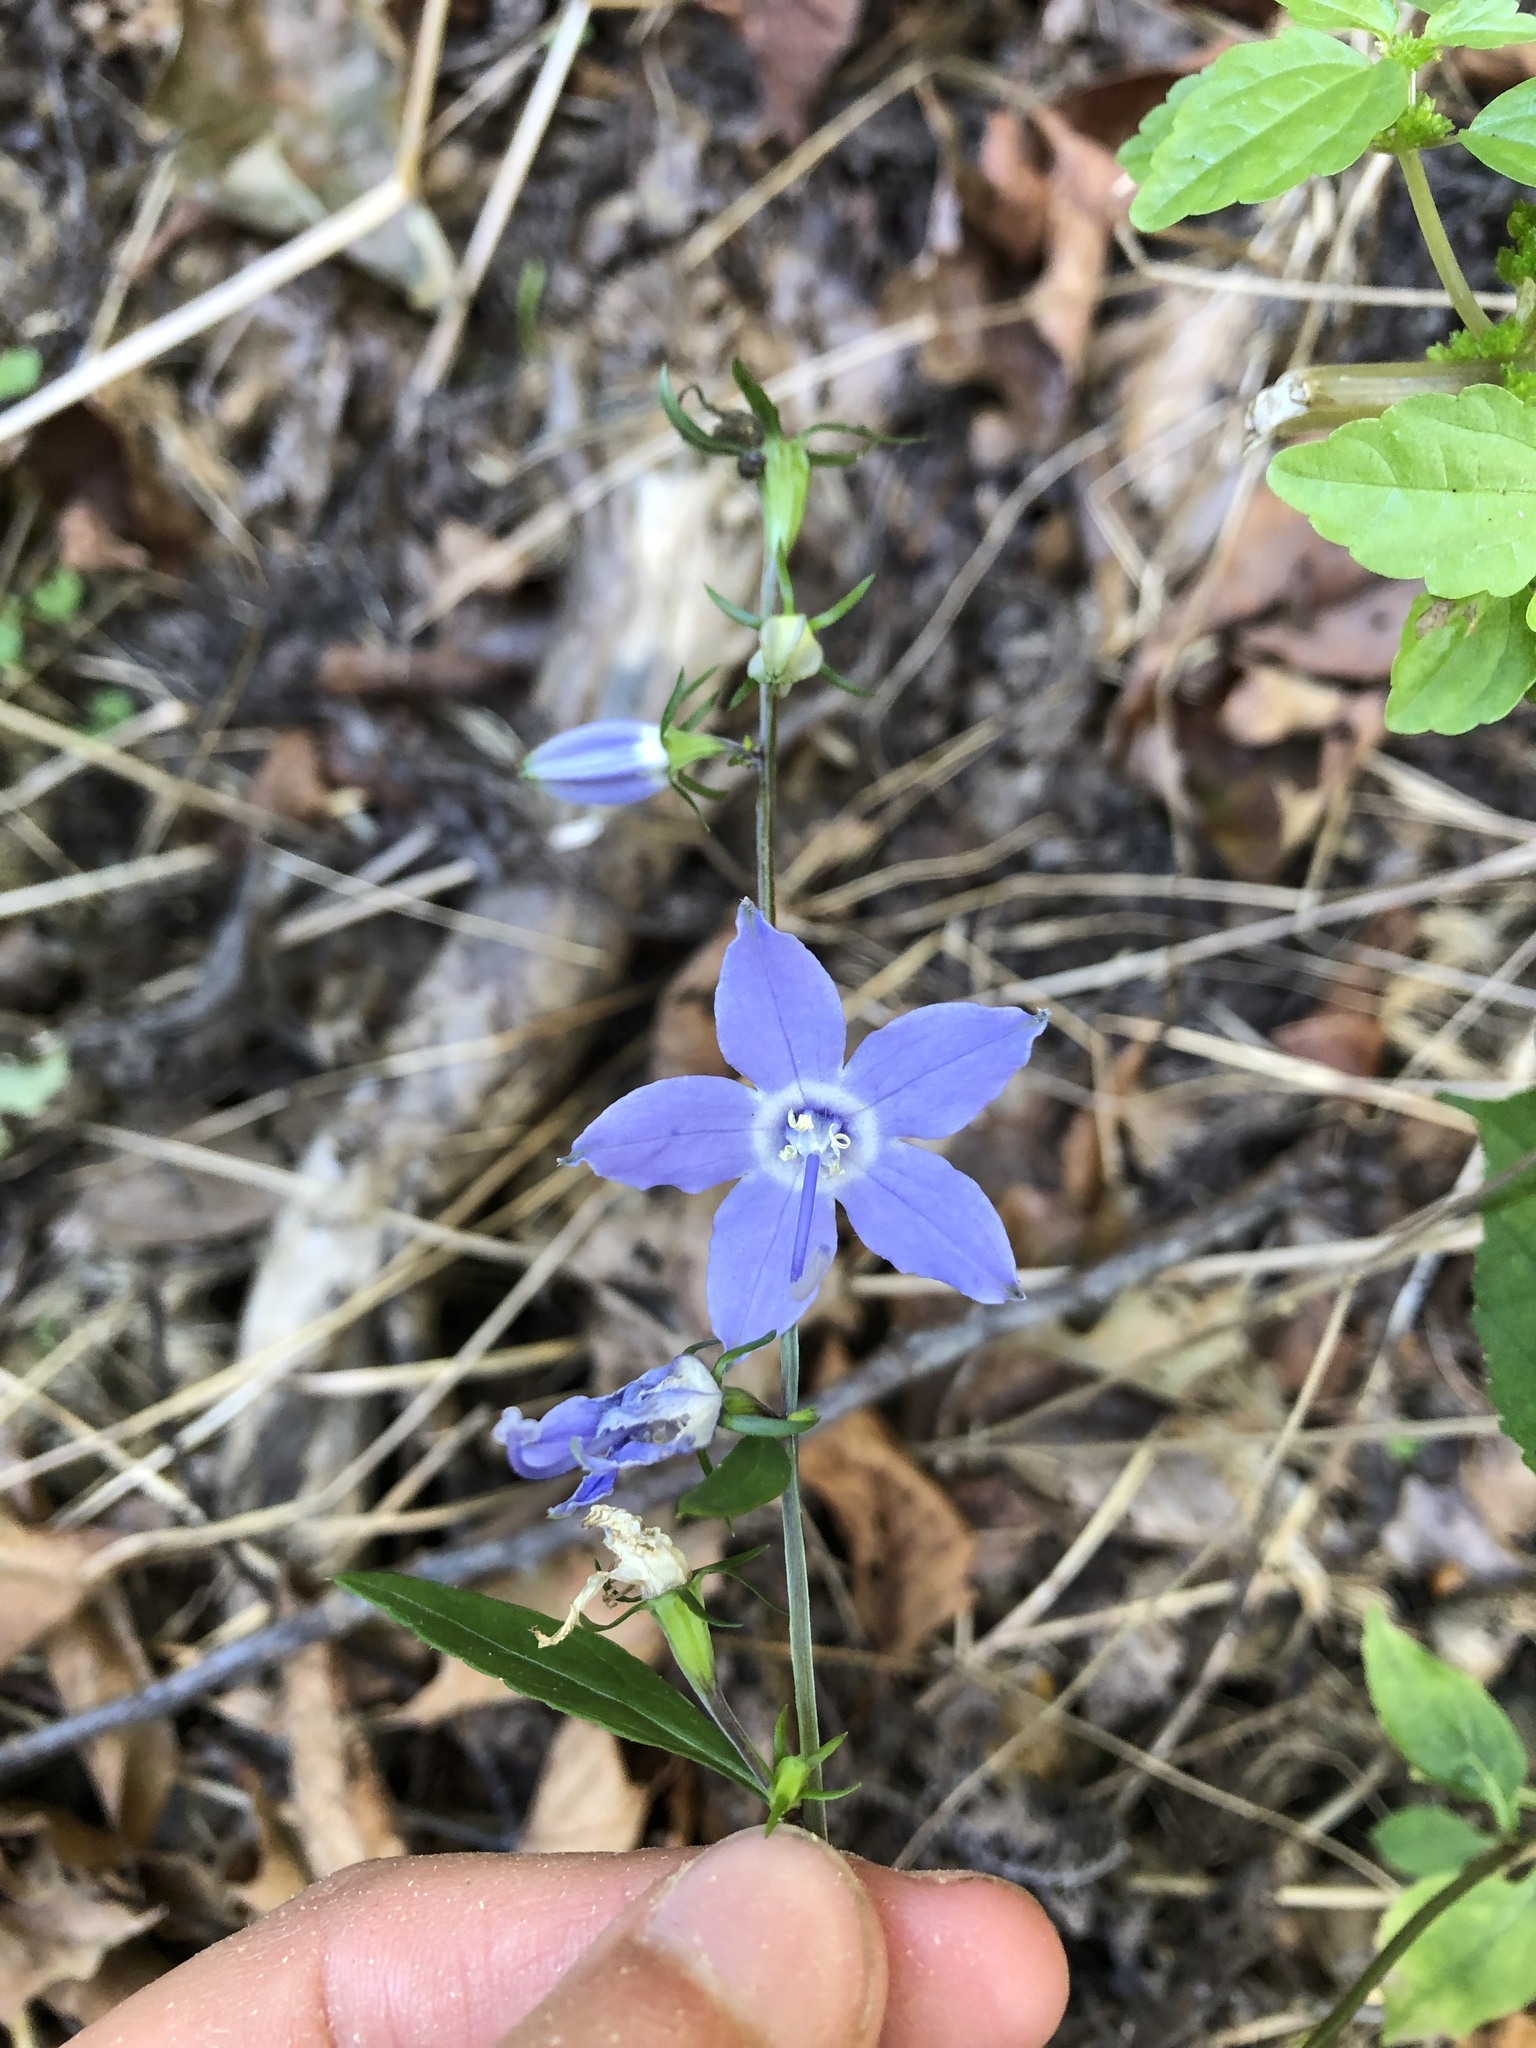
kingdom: Plantae
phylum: Tracheophyta
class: Magnoliopsida
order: Asterales
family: Campanulaceae
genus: Campanulastrum
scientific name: Campanulastrum americanum
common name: American bellflower
